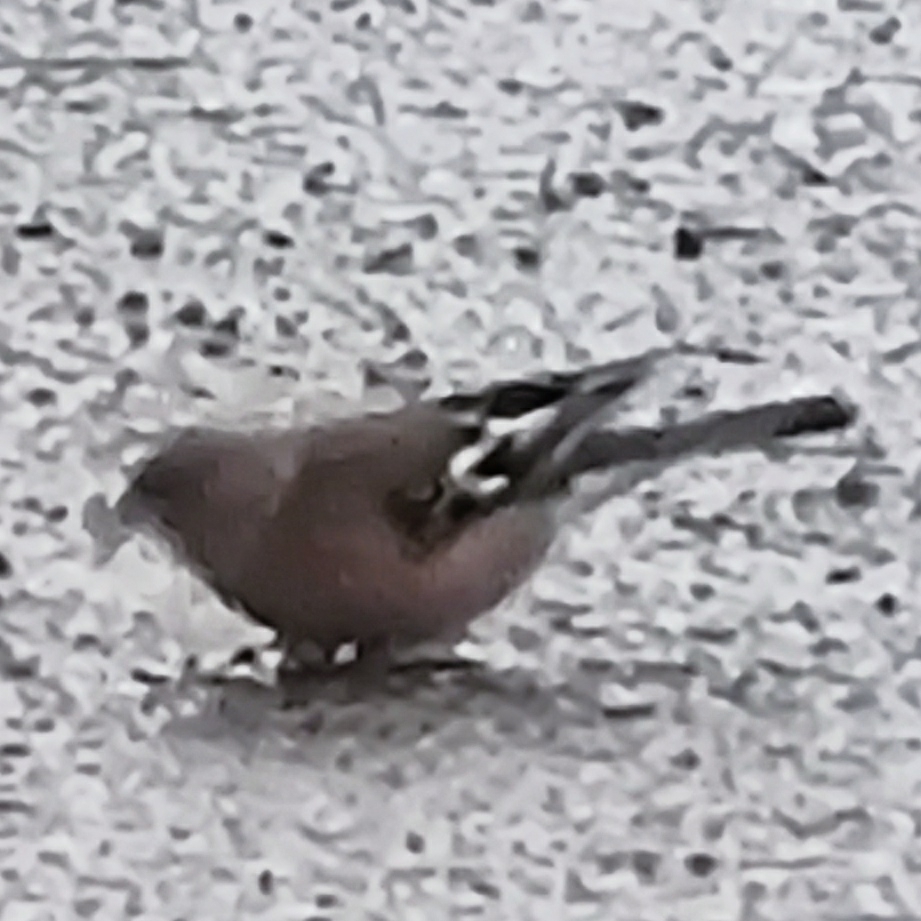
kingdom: Animalia
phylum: Chordata
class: Aves
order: Passeriformes
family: Fringillidae
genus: Fringilla
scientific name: Fringilla coelebs
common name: Common chaffinch
